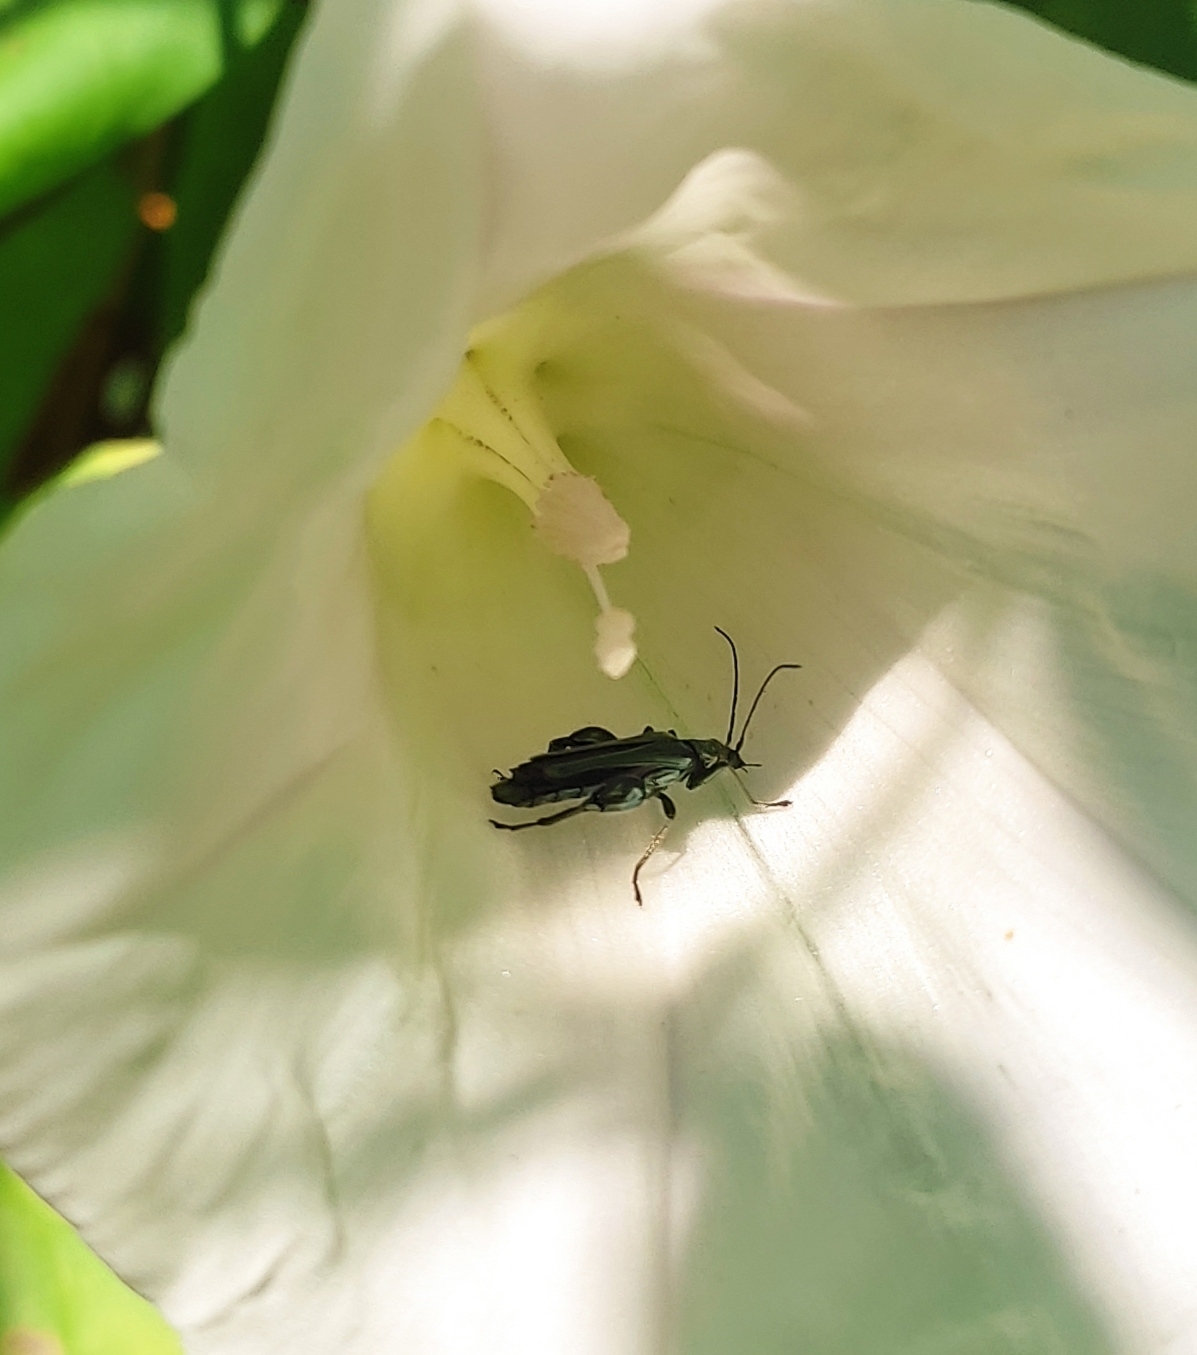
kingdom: Animalia
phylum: Arthropoda
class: Insecta
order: Coleoptera
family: Oedemeridae
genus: Oedemera
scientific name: Oedemera nobilis
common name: Swollen-thighed beetle
